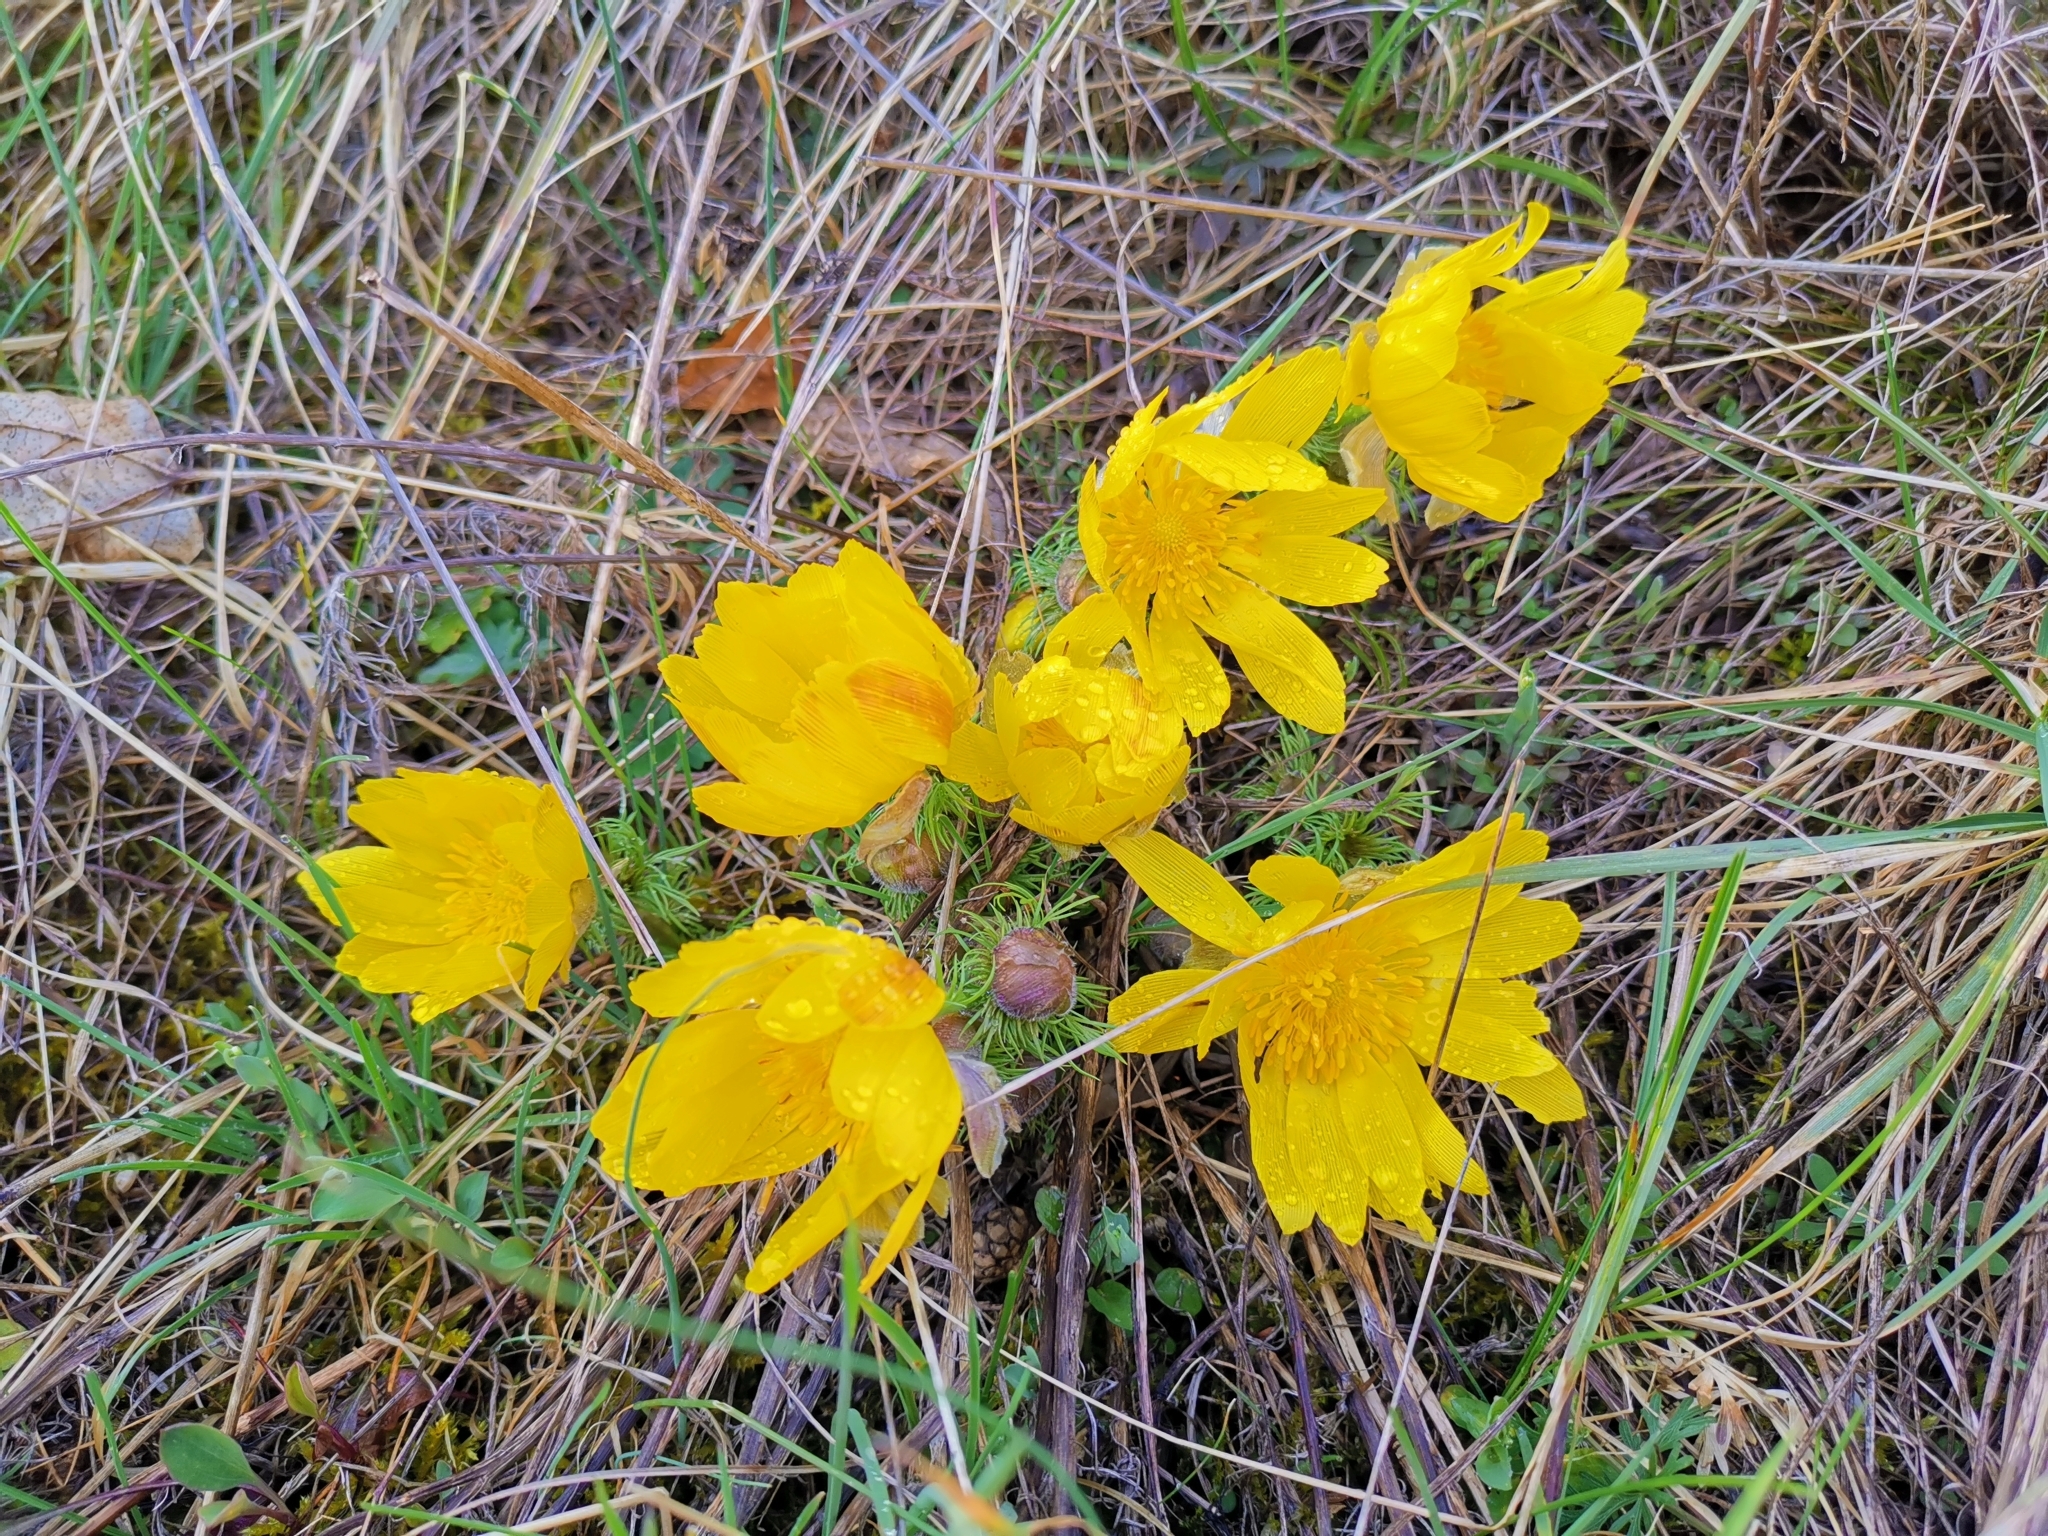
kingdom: Plantae
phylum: Tracheophyta
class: Magnoliopsida
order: Ranunculales
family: Ranunculaceae
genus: Adonis
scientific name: Adonis vernalis
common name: Yellow pheasants-eye
